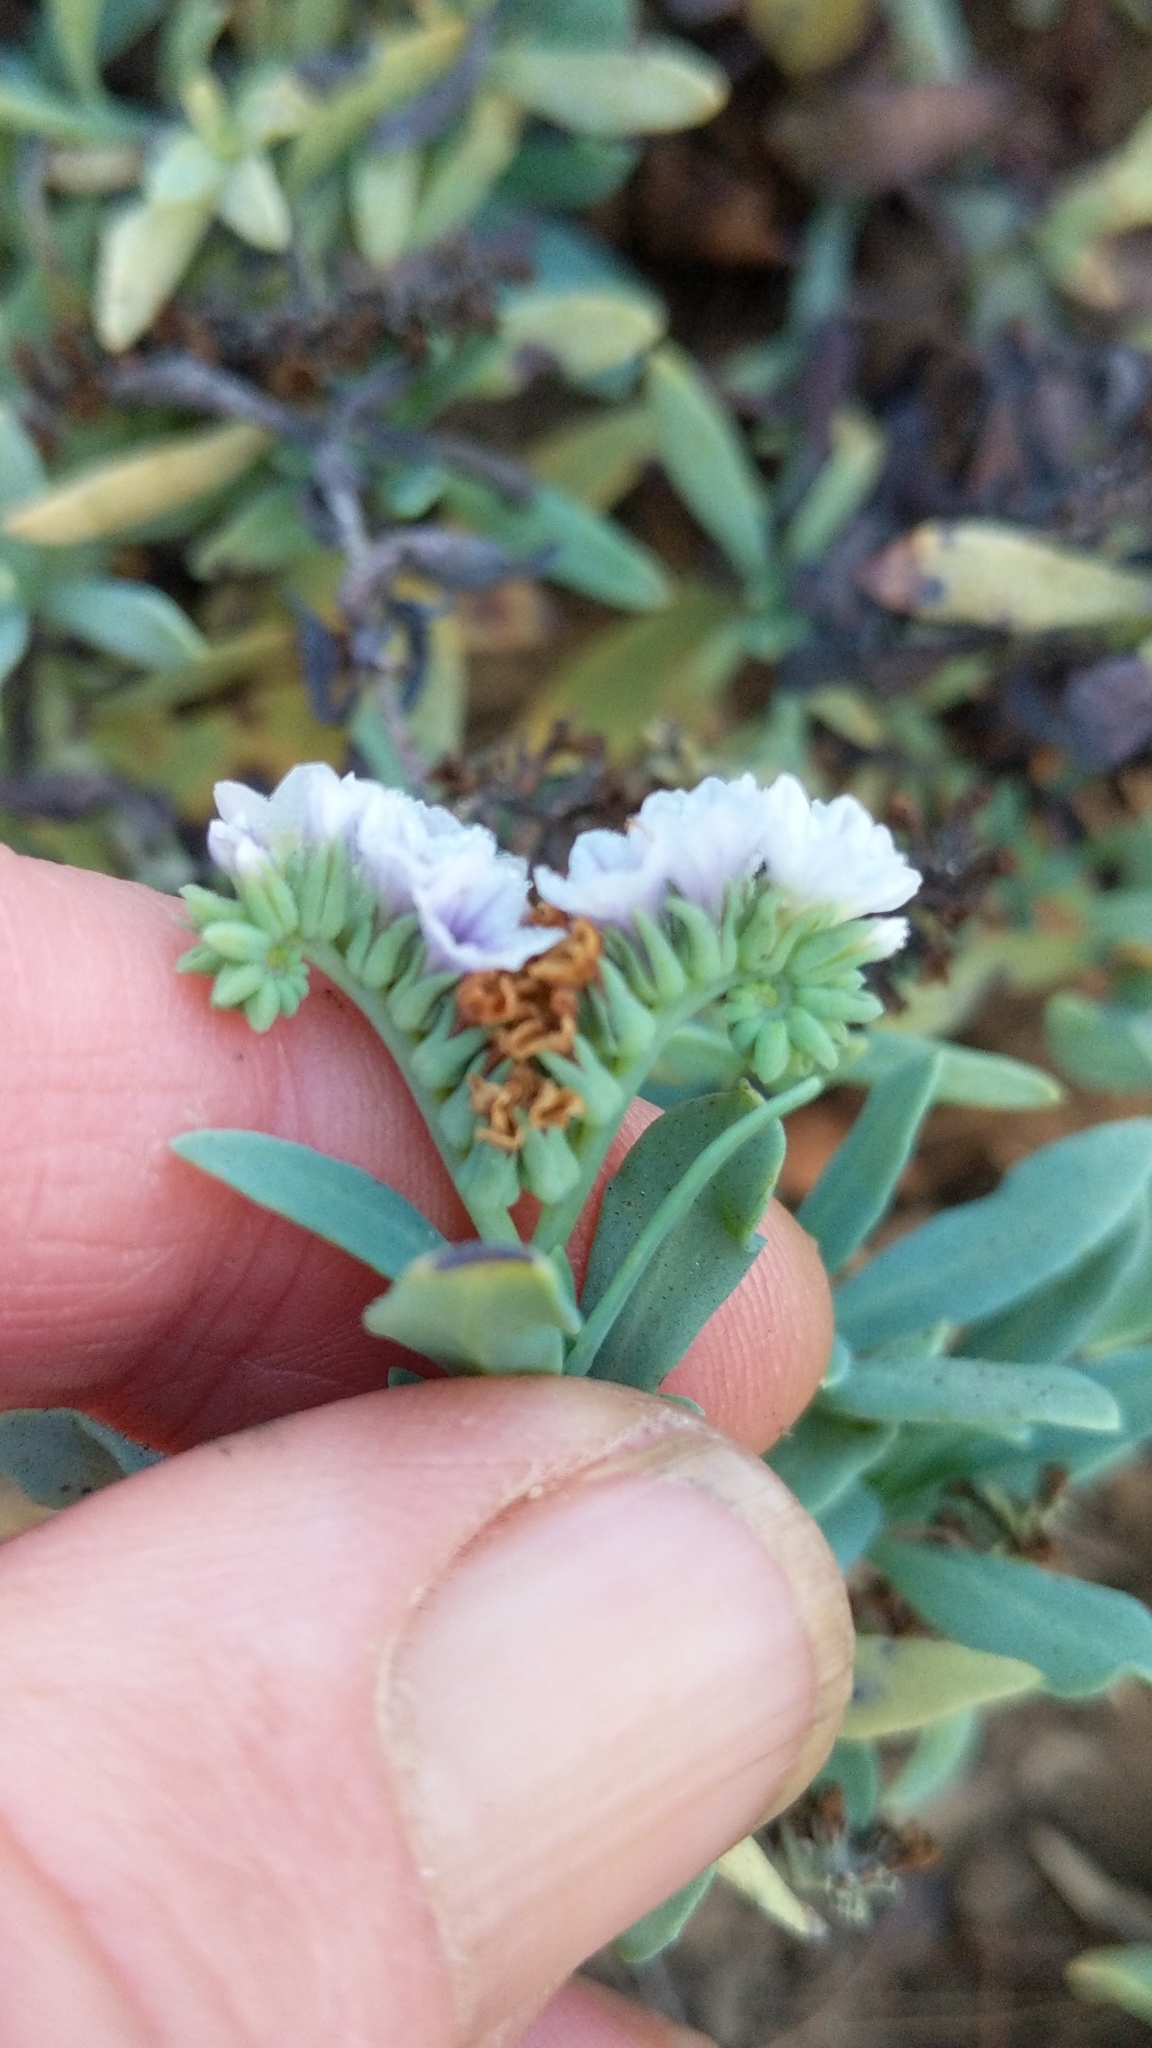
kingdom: Plantae
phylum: Tracheophyta
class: Magnoliopsida
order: Boraginales
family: Heliotropiaceae
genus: Heliotropium
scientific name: Heliotropium curassavicum
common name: Seaside heliotrope
